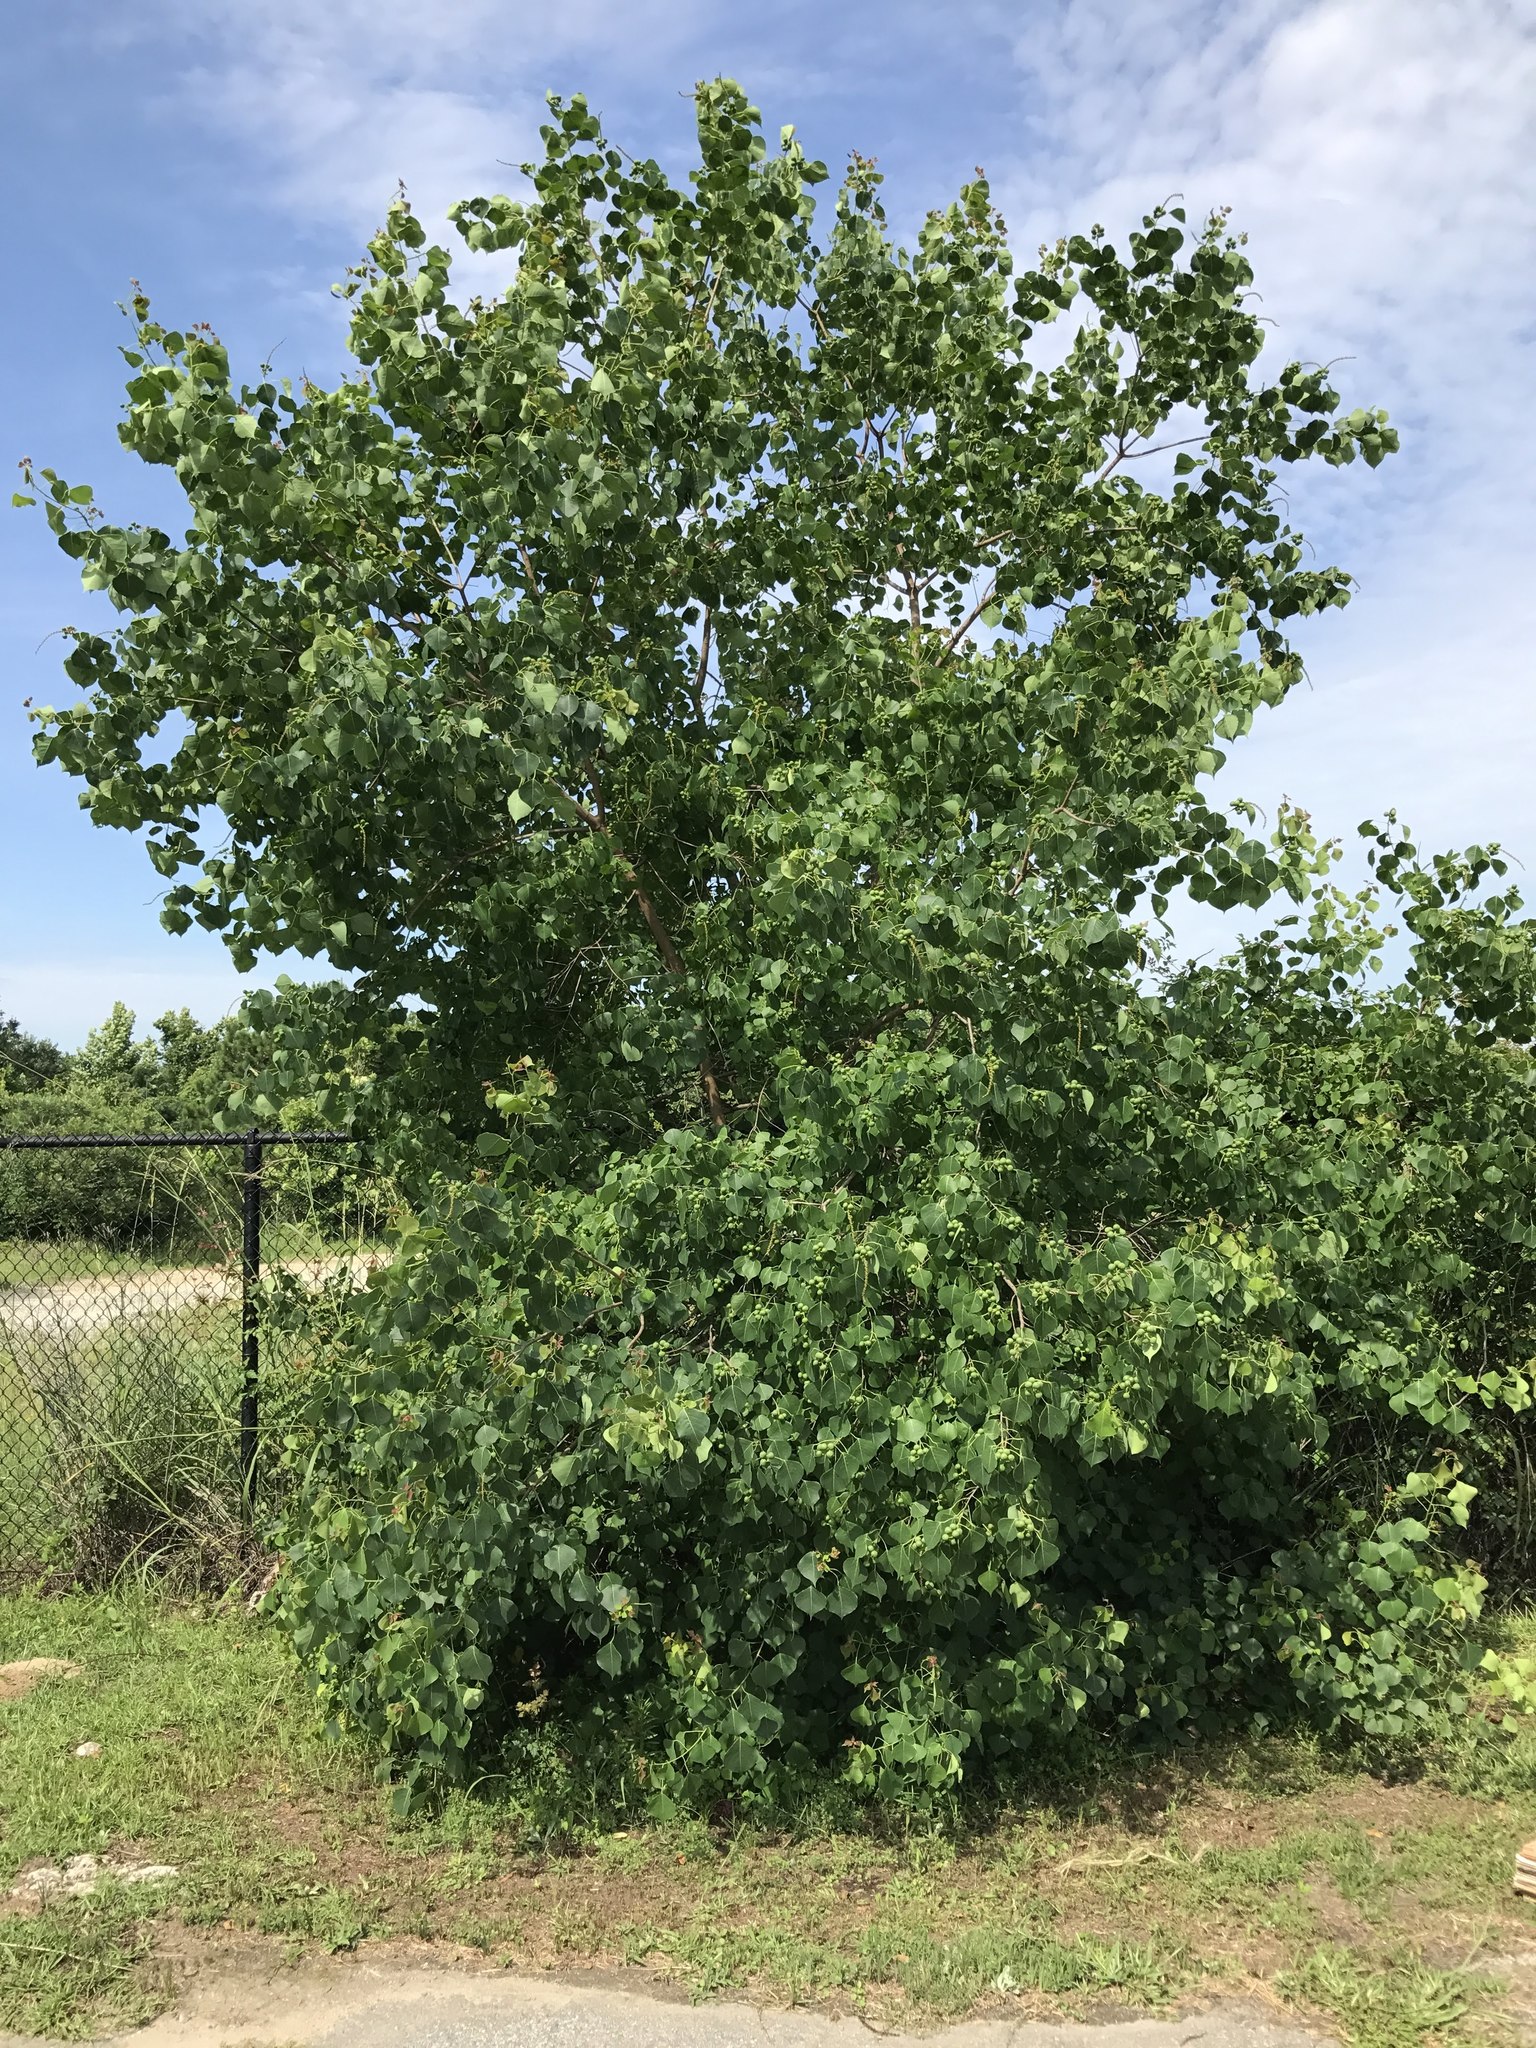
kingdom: Plantae
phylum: Tracheophyta
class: Magnoliopsida
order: Malpighiales
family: Euphorbiaceae
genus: Triadica
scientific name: Triadica sebifera
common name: Chinese tallow
